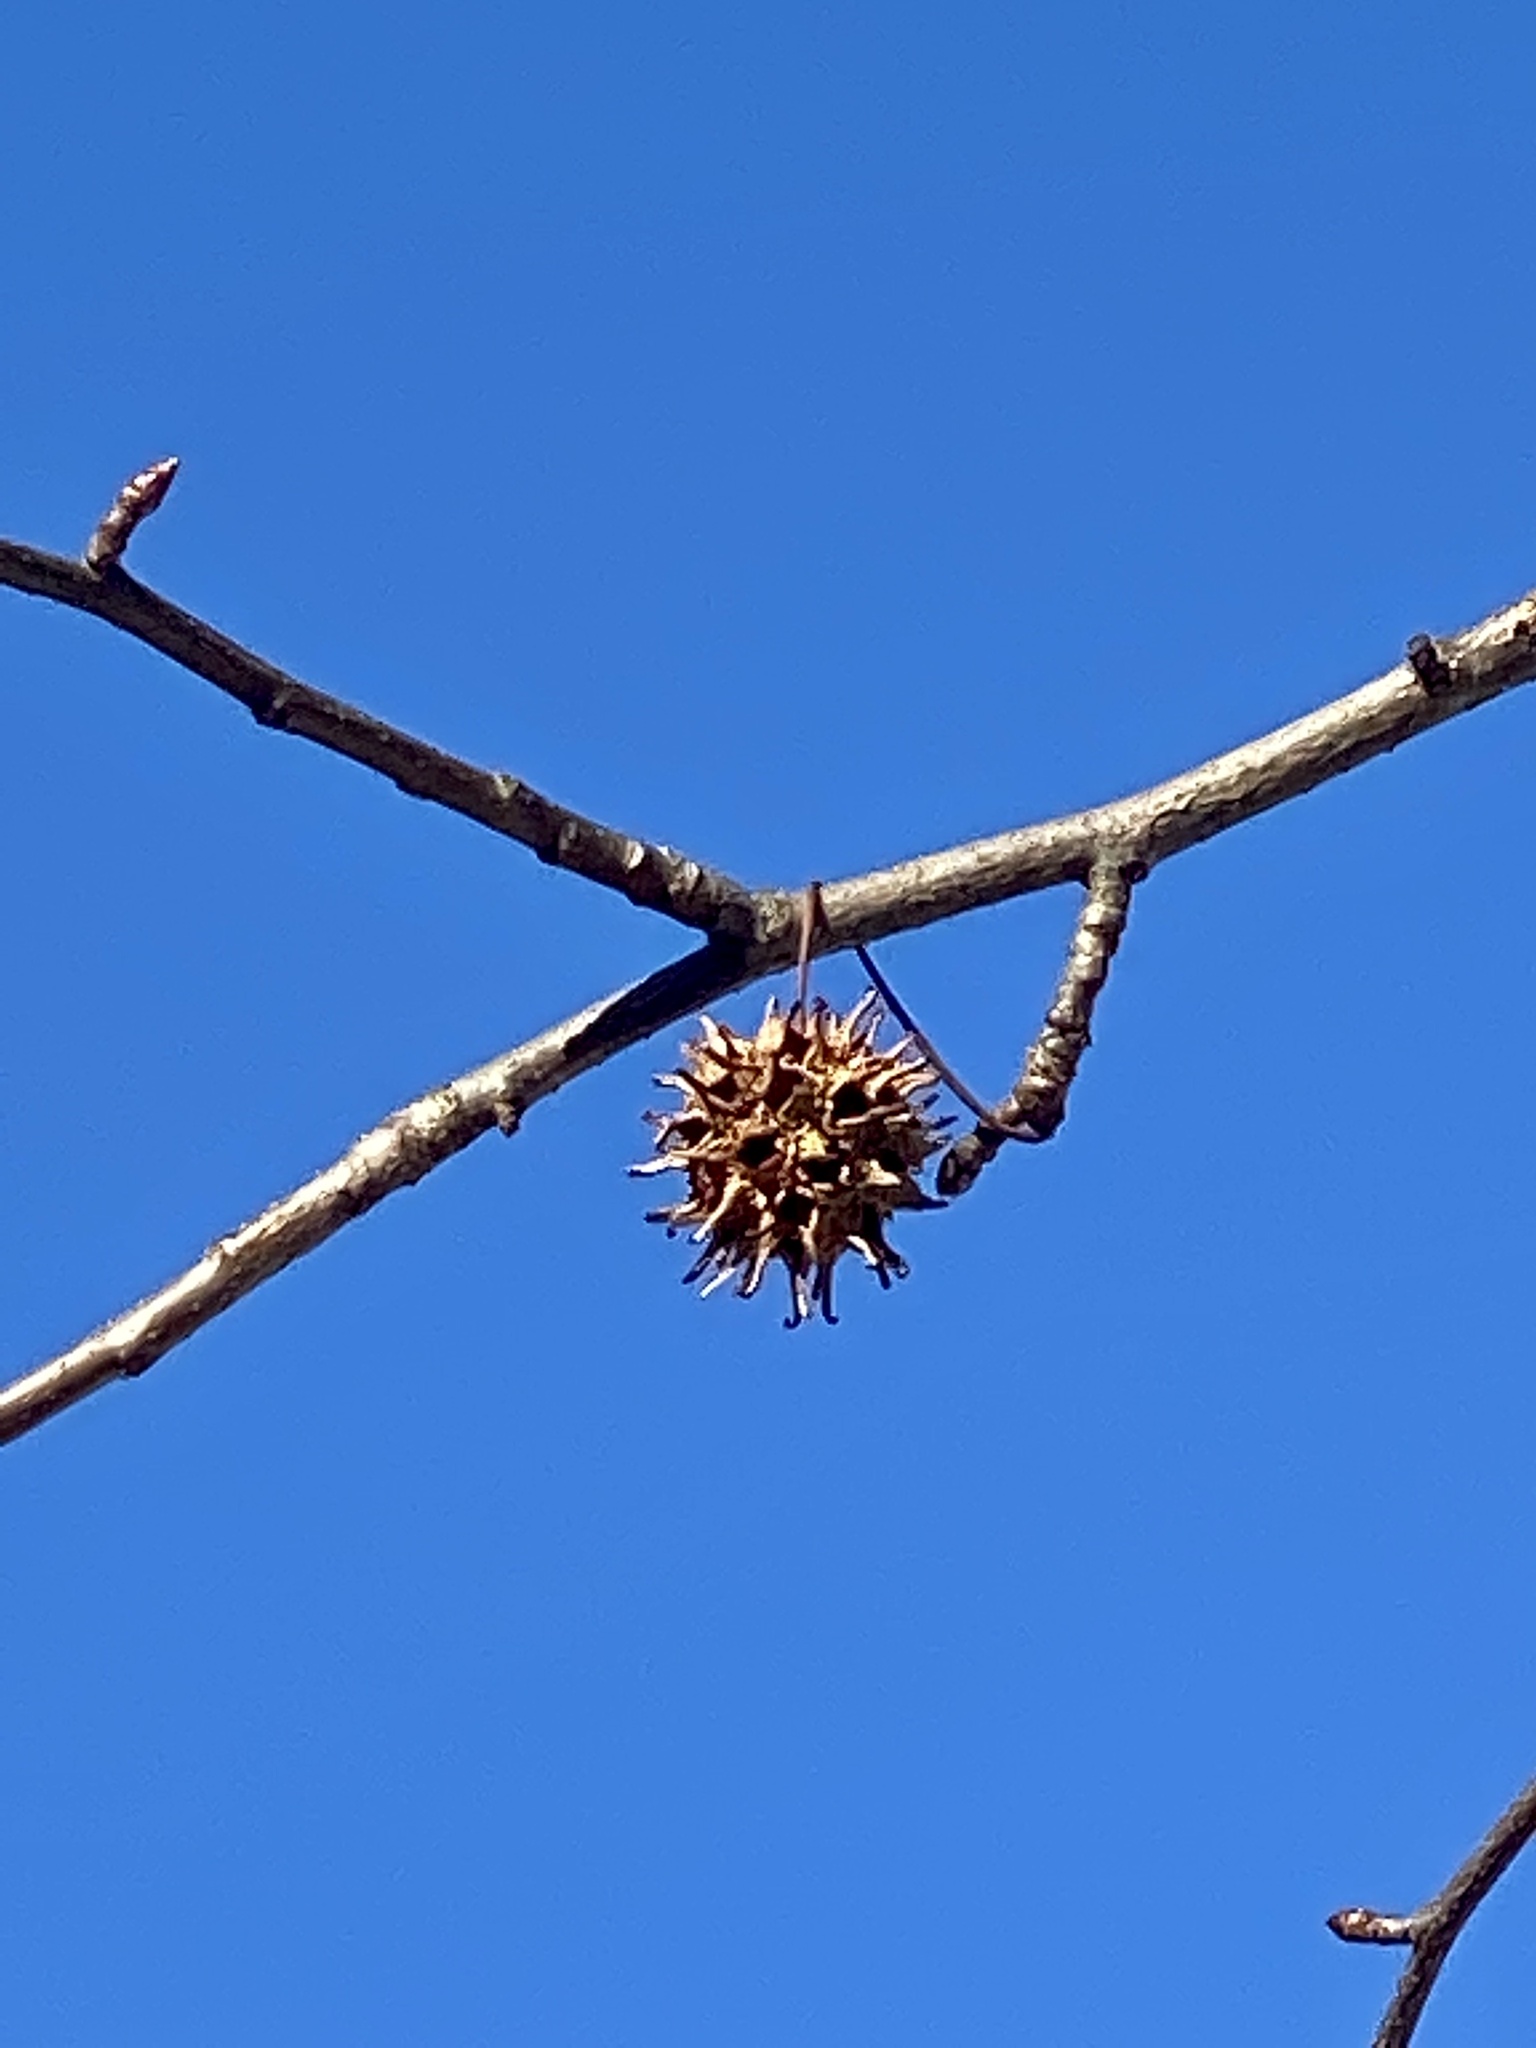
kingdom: Plantae
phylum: Tracheophyta
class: Magnoliopsida
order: Saxifragales
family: Altingiaceae
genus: Liquidambar
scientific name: Liquidambar styraciflua
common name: Sweet gum
